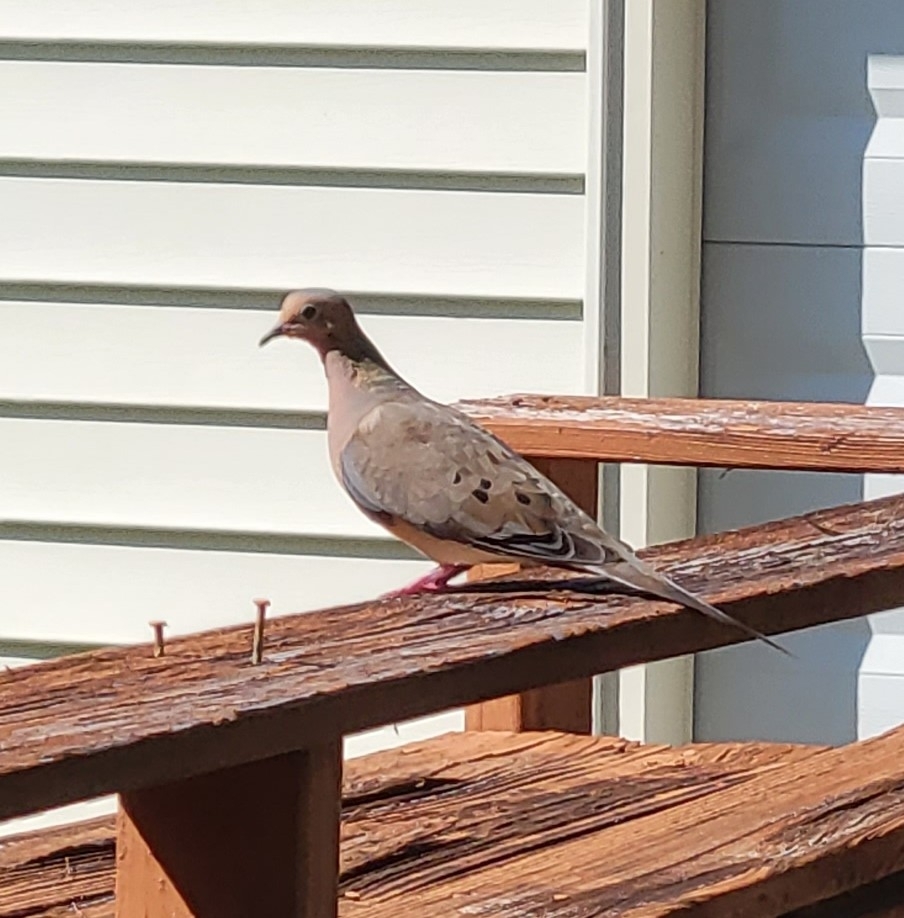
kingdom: Animalia
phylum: Chordata
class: Aves
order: Columbiformes
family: Columbidae
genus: Zenaida
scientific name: Zenaida macroura
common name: Mourning dove
